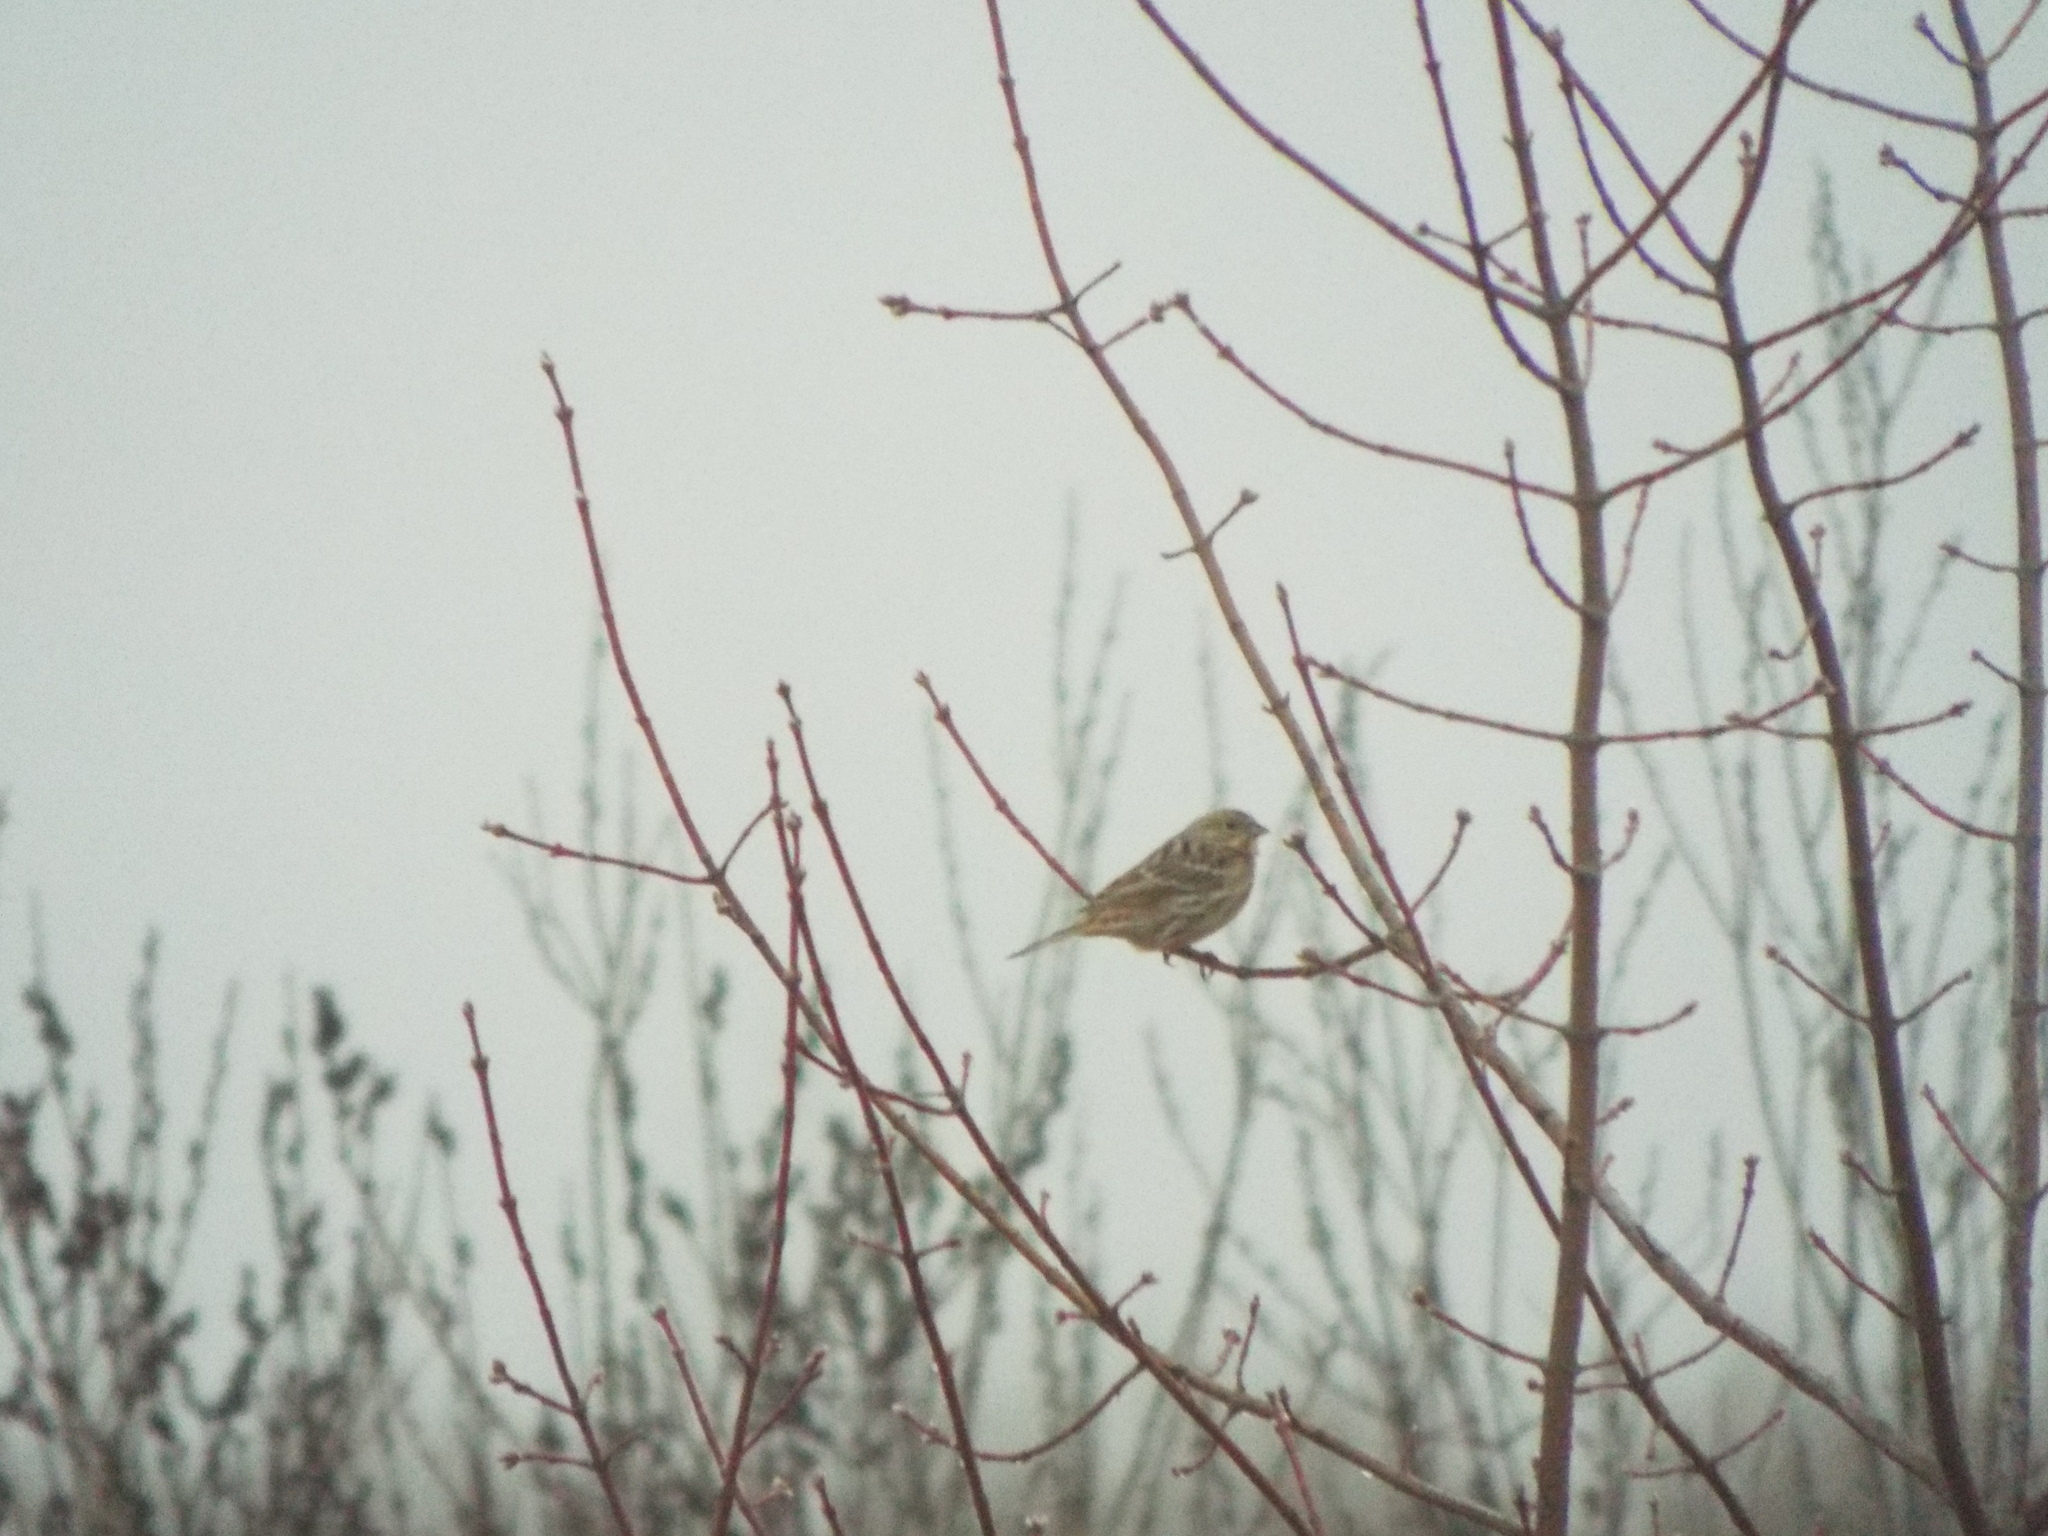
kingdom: Animalia
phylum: Chordata
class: Aves
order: Passeriformes
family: Emberizidae
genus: Emberiza
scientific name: Emberiza citrinella
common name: Yellowhammer
